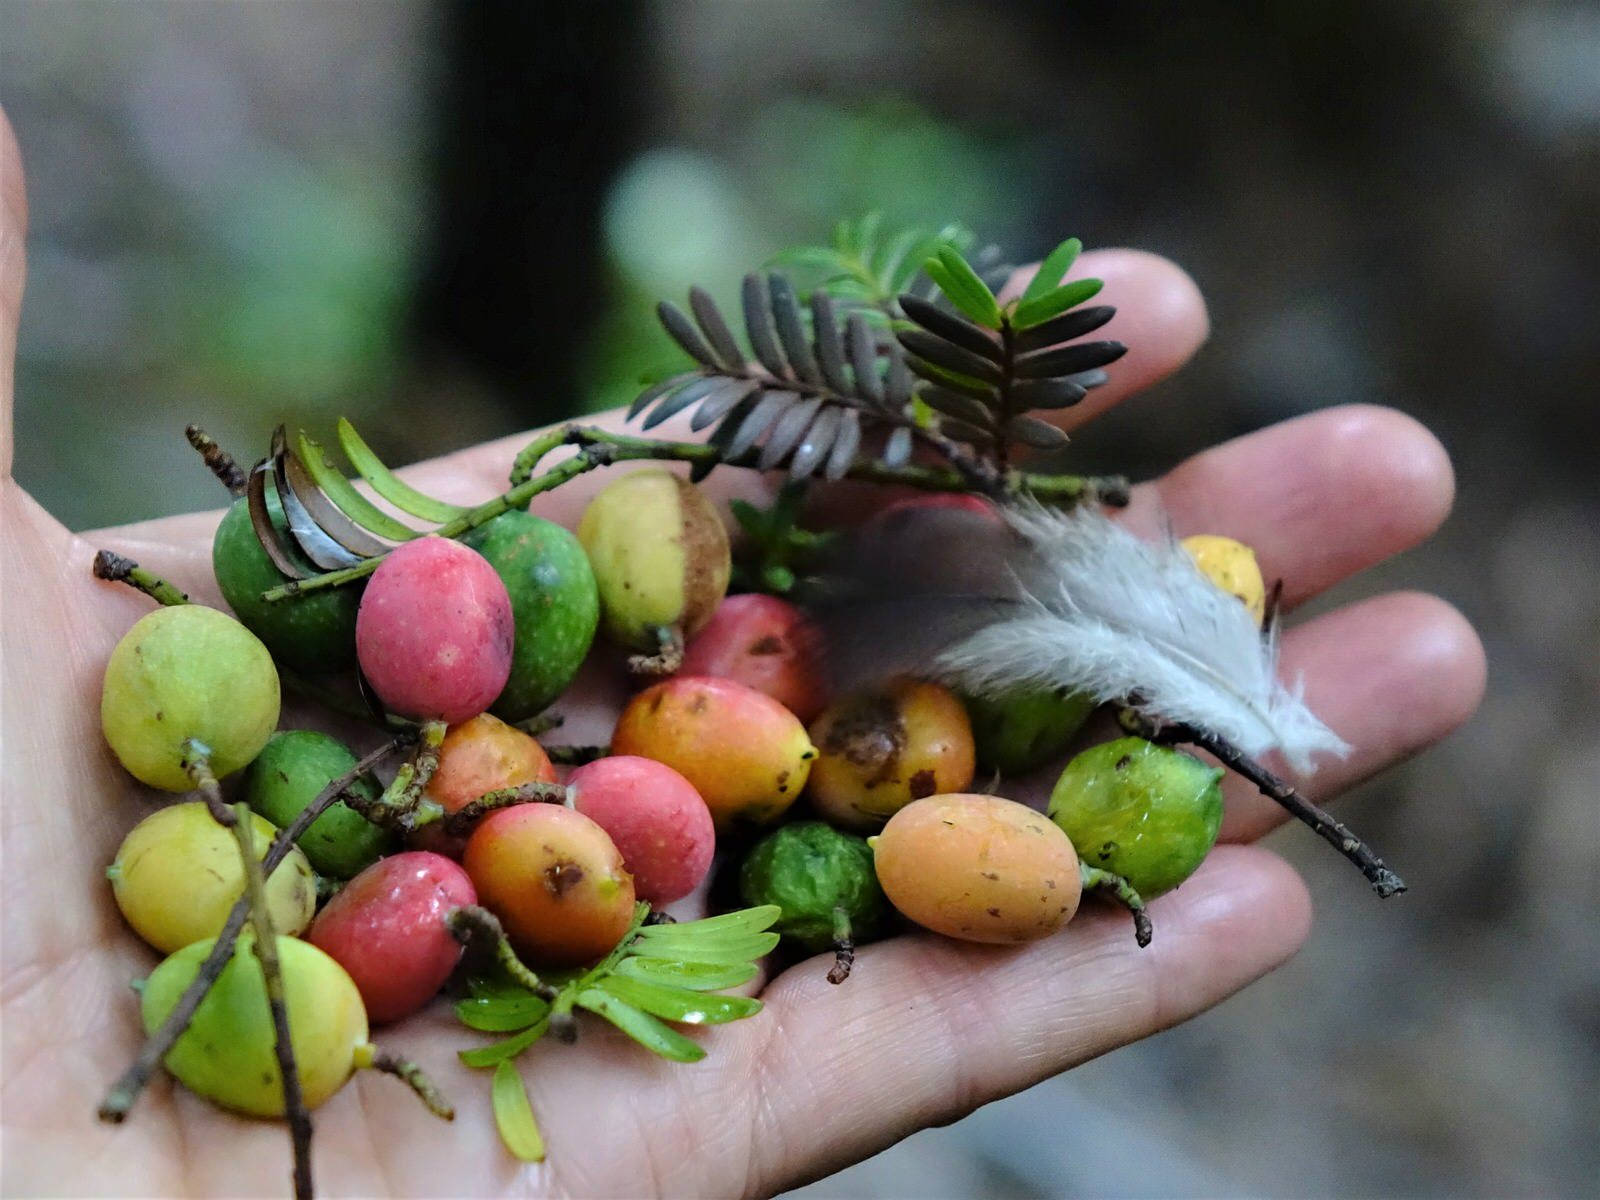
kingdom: Plantae
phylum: Tracheophyta
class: Pinopsida
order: Pinales
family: Podocarpaceae
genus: Prumnopitys
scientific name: Prumnopitys ferruginea
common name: Brown pine
